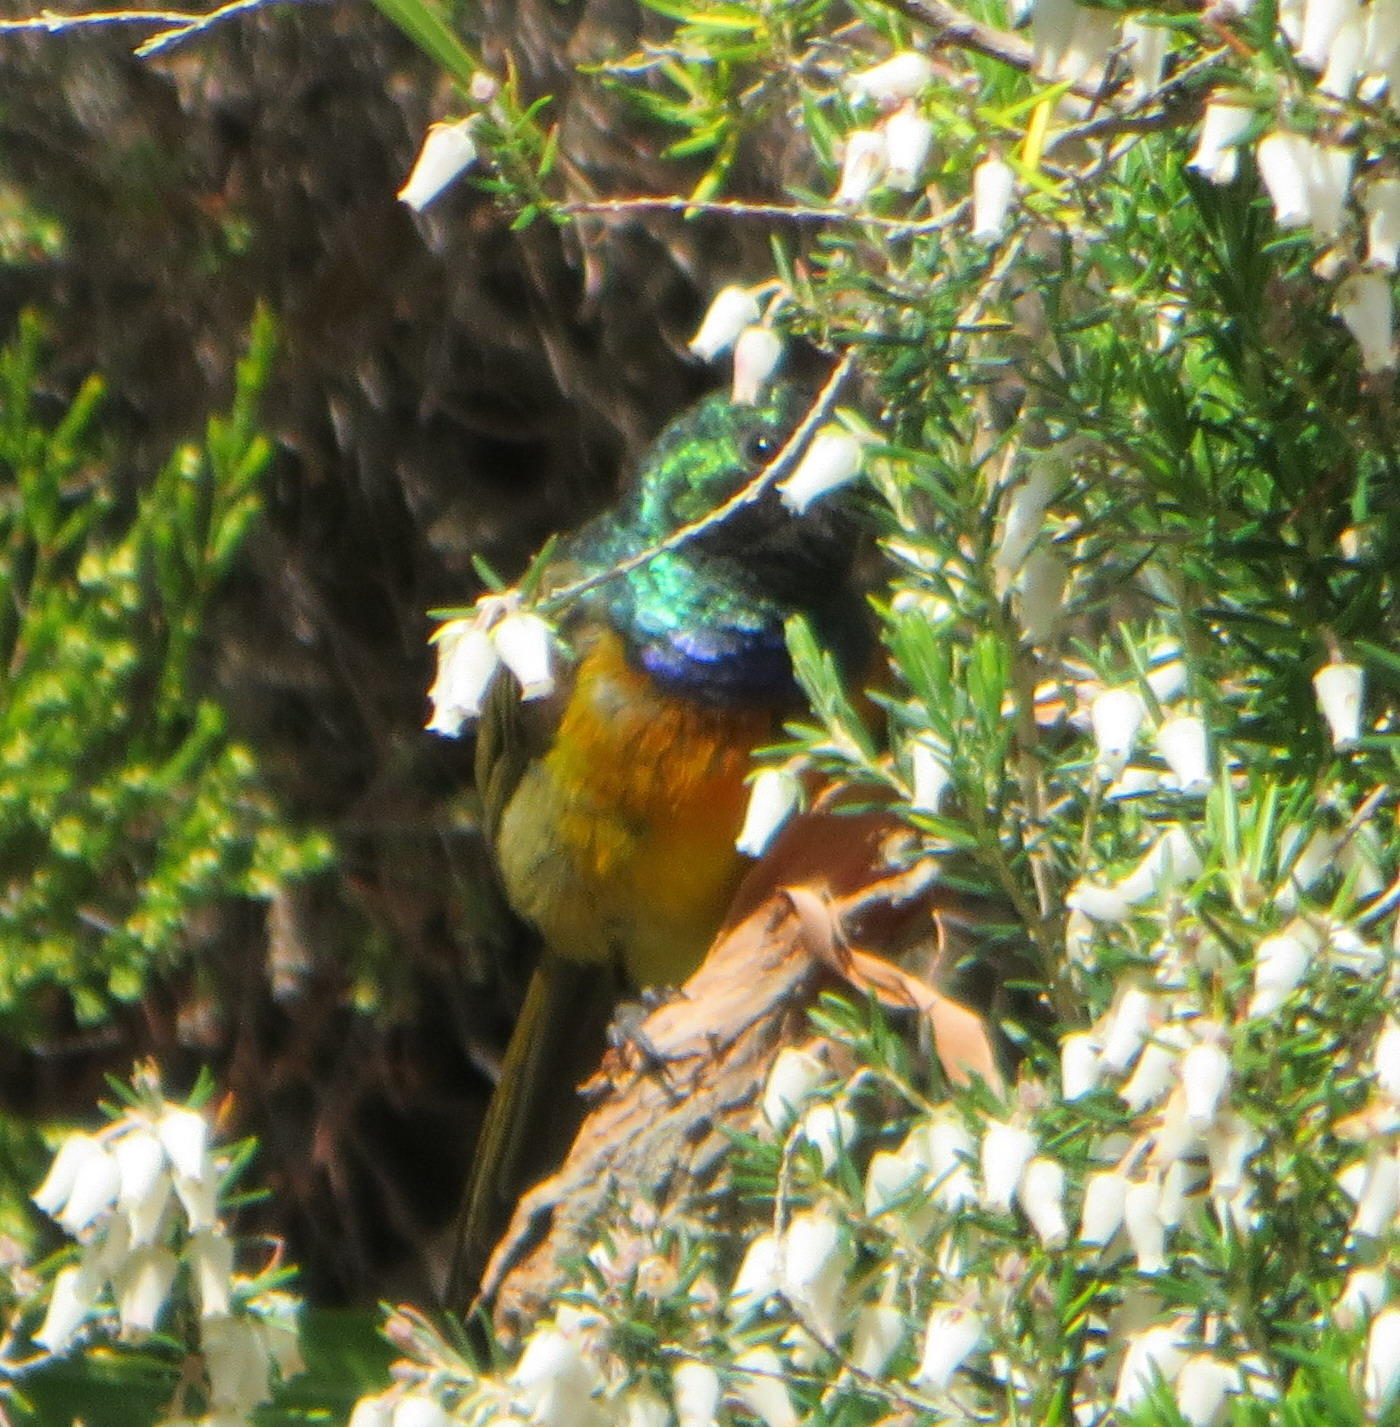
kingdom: Animalia
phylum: Chordata
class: Aves
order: Passeriformes
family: Nectariniidae
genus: Anthobaphes
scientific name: Anthobaphes violacea
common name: Orange-breasted sunbird
